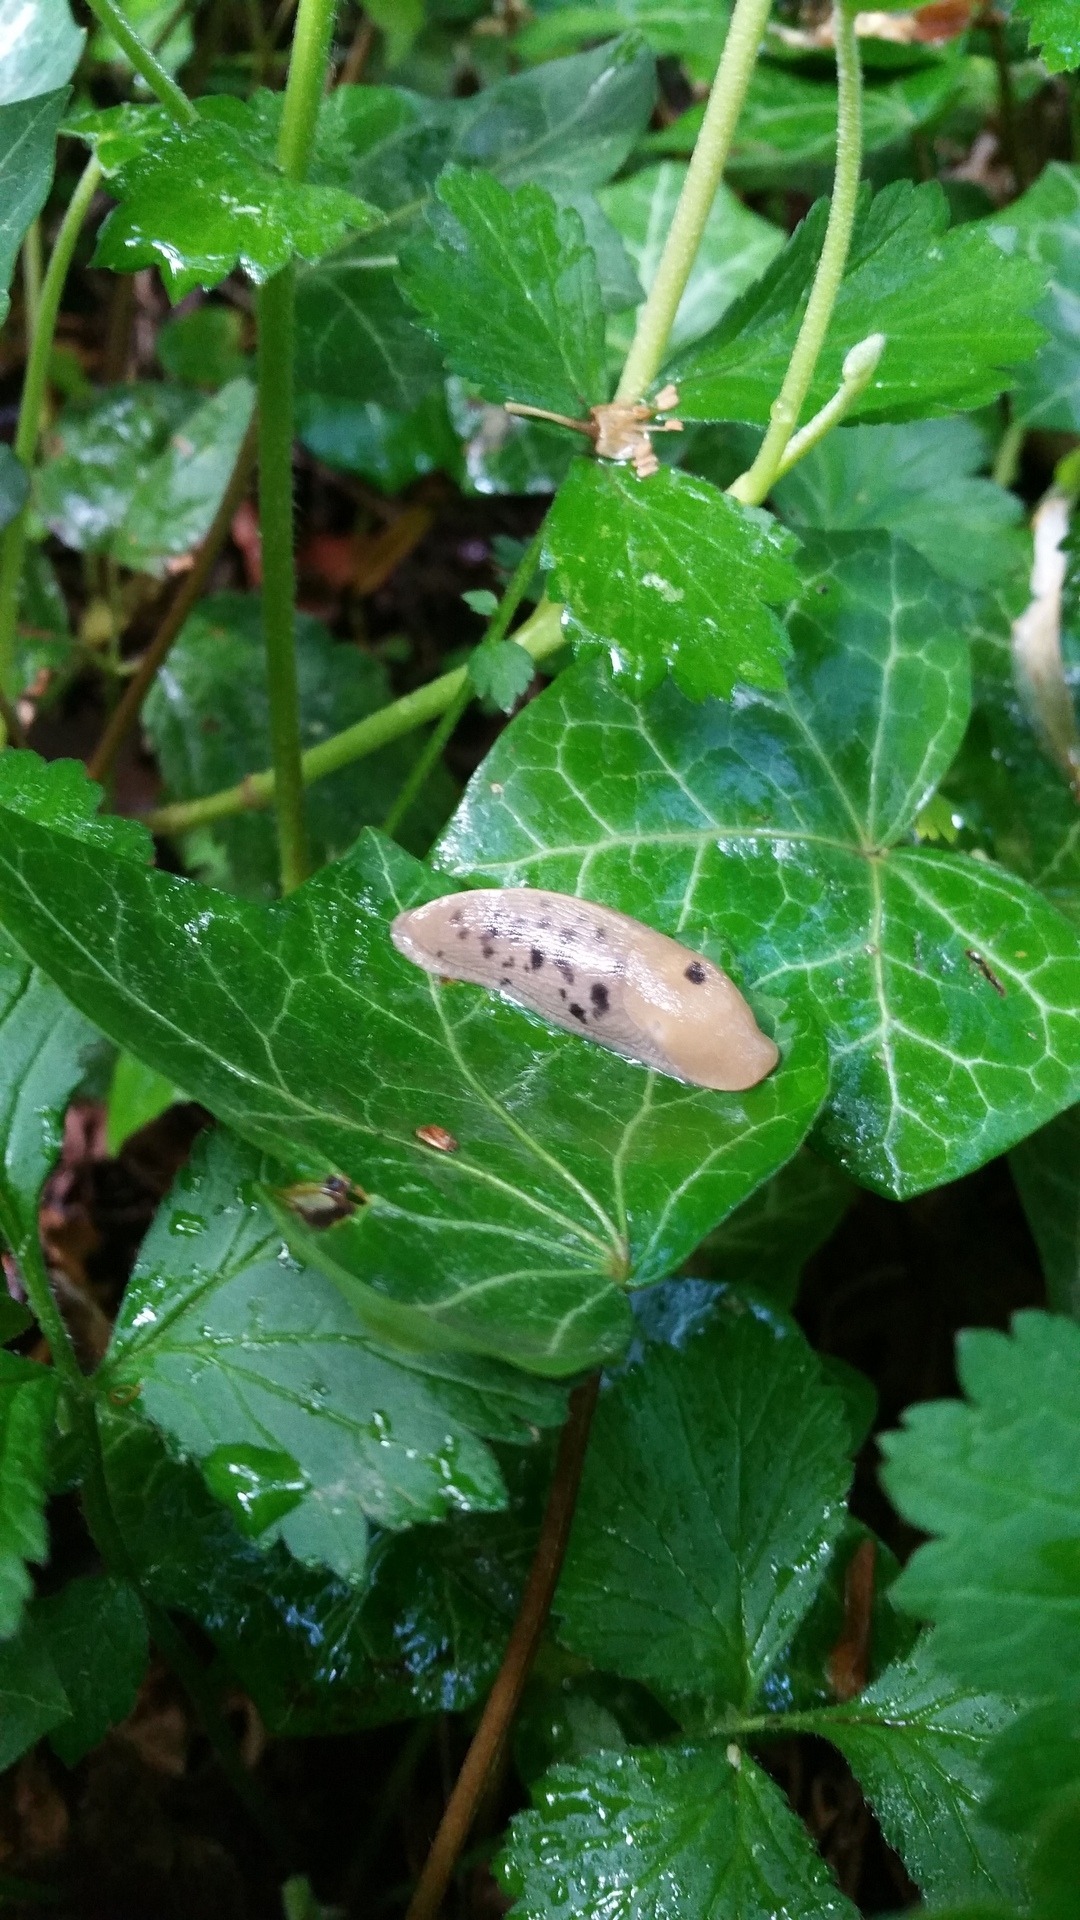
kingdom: Animalia
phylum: Mollusca
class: Gastropoda
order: Stylommatophora
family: Ariolimacidae
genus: Ariolimax
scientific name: Ariolimax columbianus
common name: Pacific banana slug
